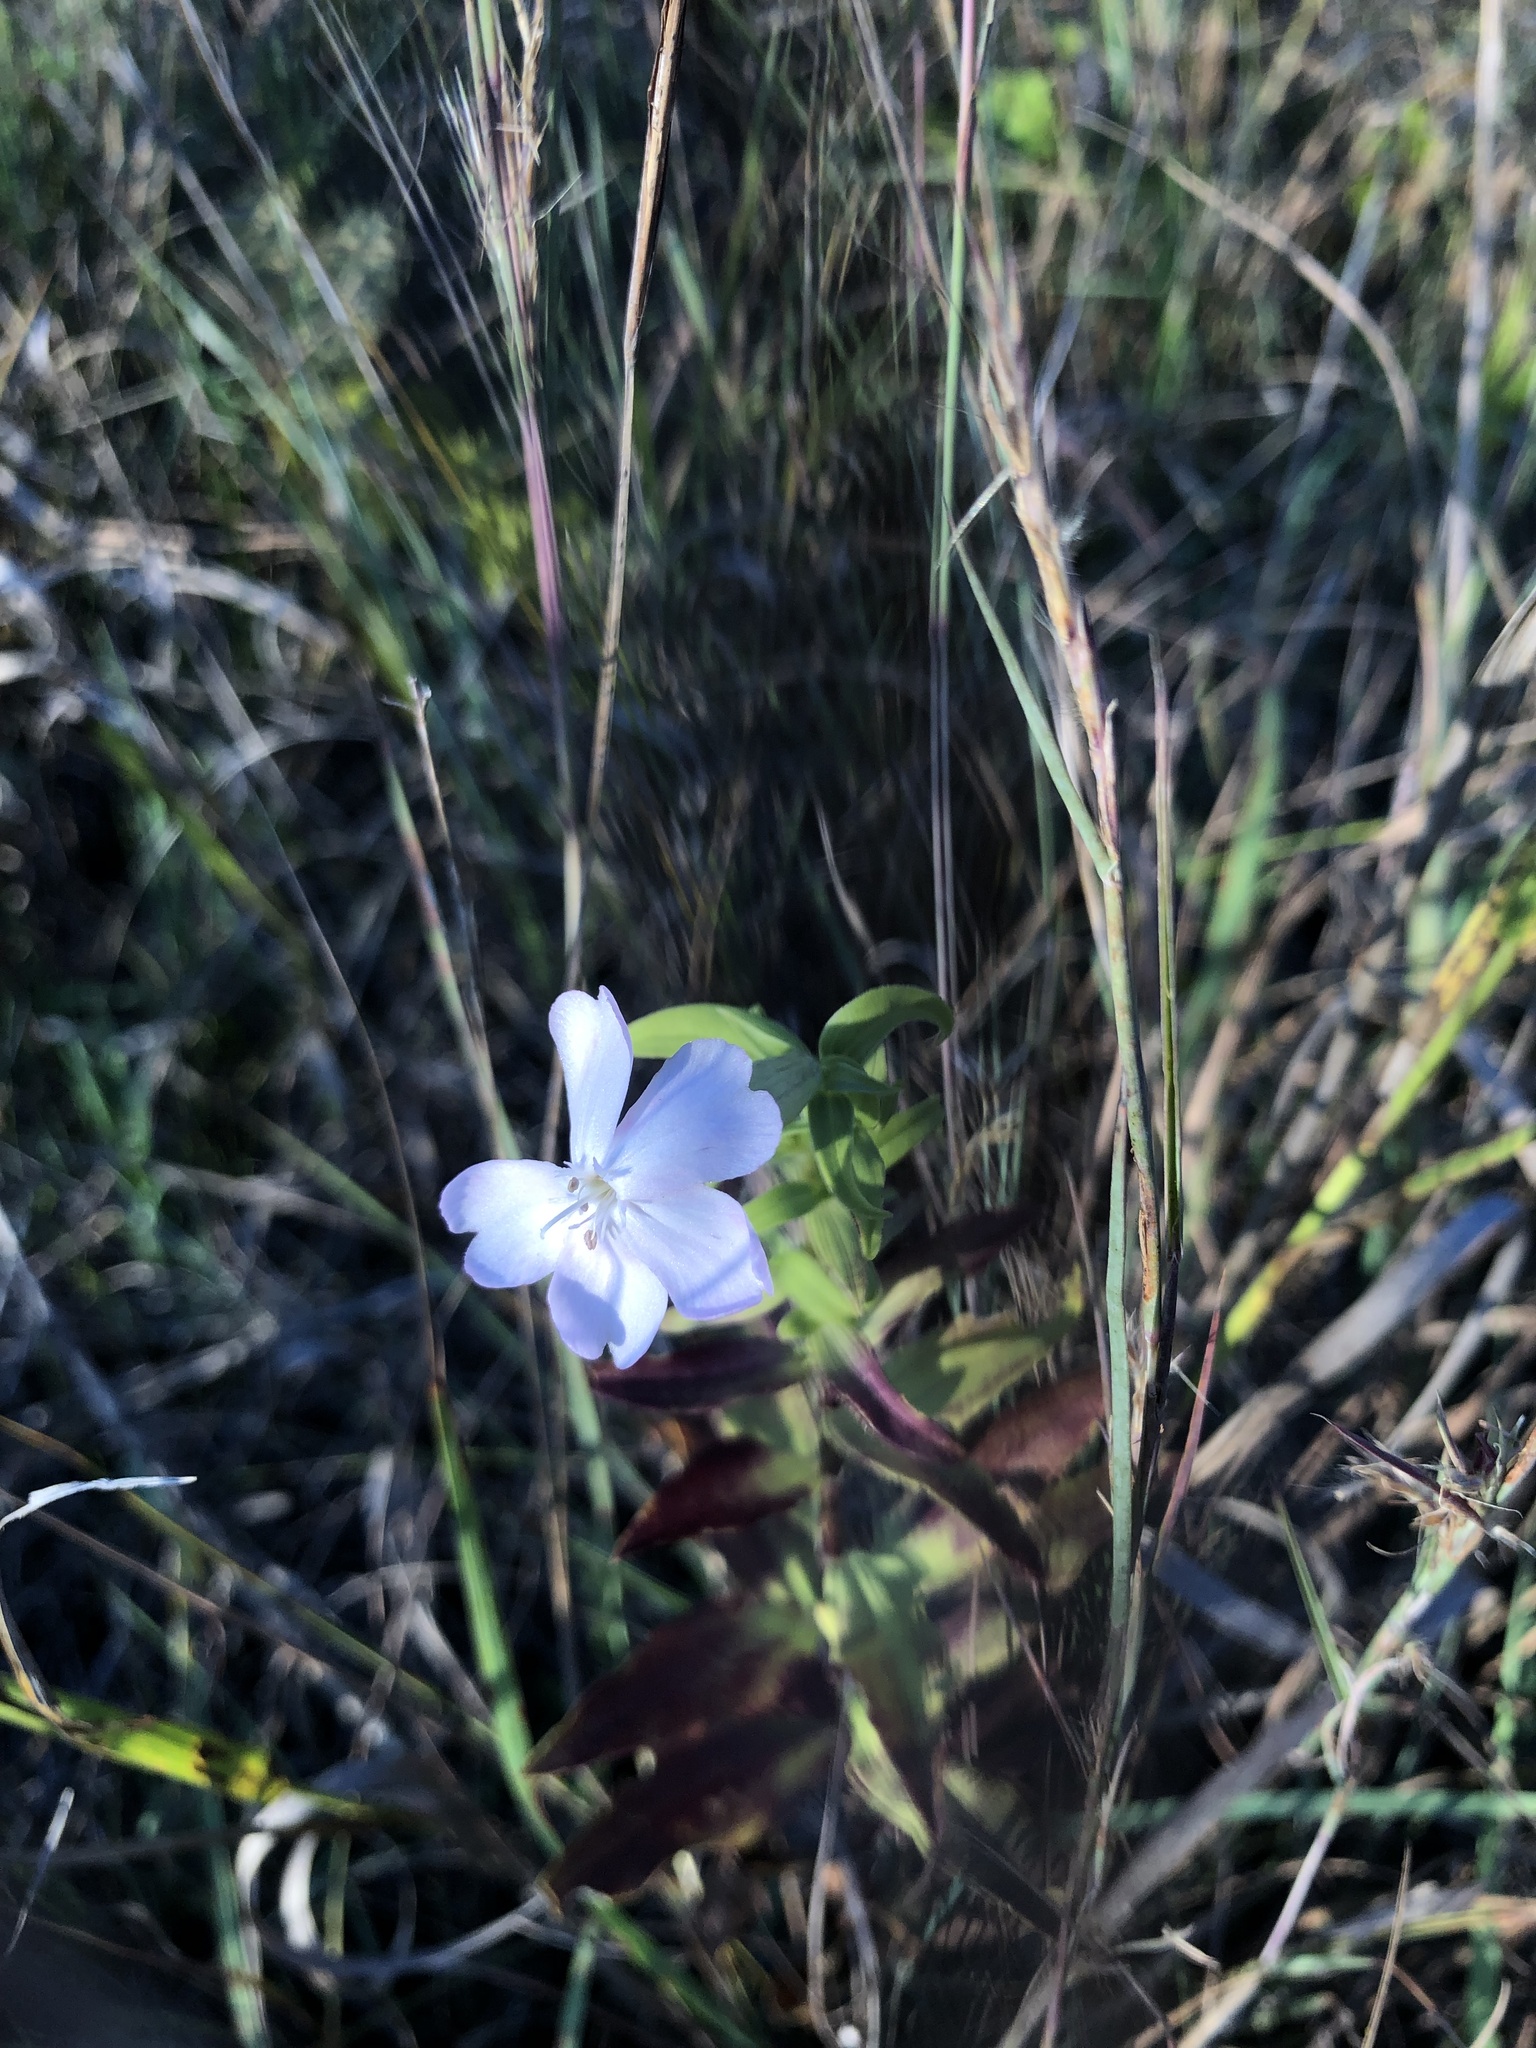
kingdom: Plantae
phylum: Tracheophyta
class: Magnoliopsida
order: Caryophyllales
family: Caryophyllaceae
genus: Saponaria
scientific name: Saponaria officinalis
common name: Soapwort
